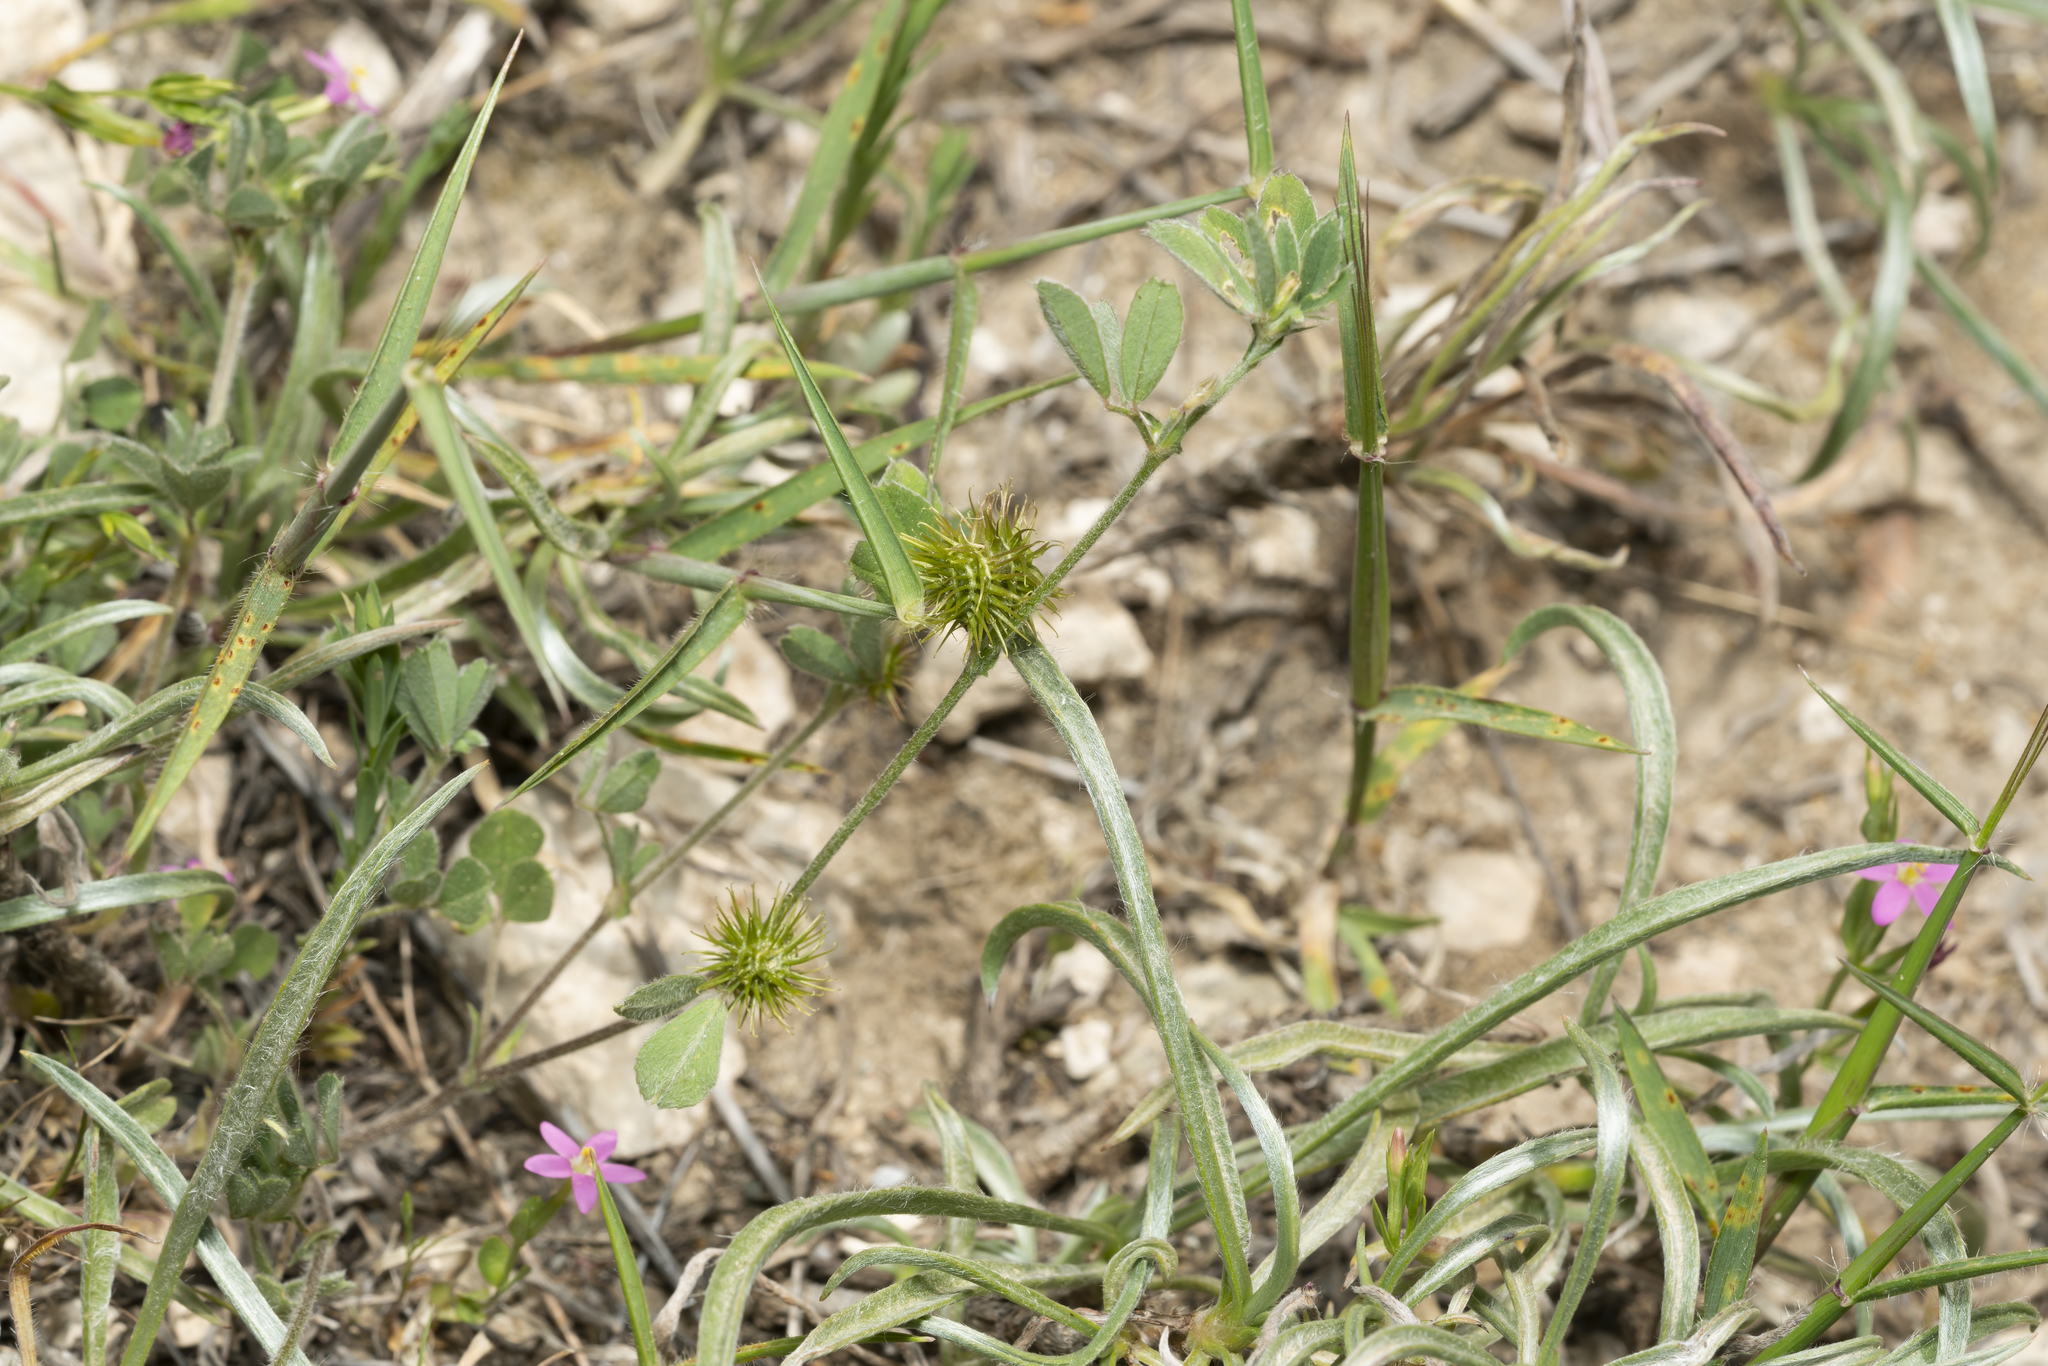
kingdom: Plantae
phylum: Tracheophyta
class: Magnoliopsida
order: Fabales
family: Fabaceae
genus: Medicago
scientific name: Medicago minima
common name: Little bur-clover
